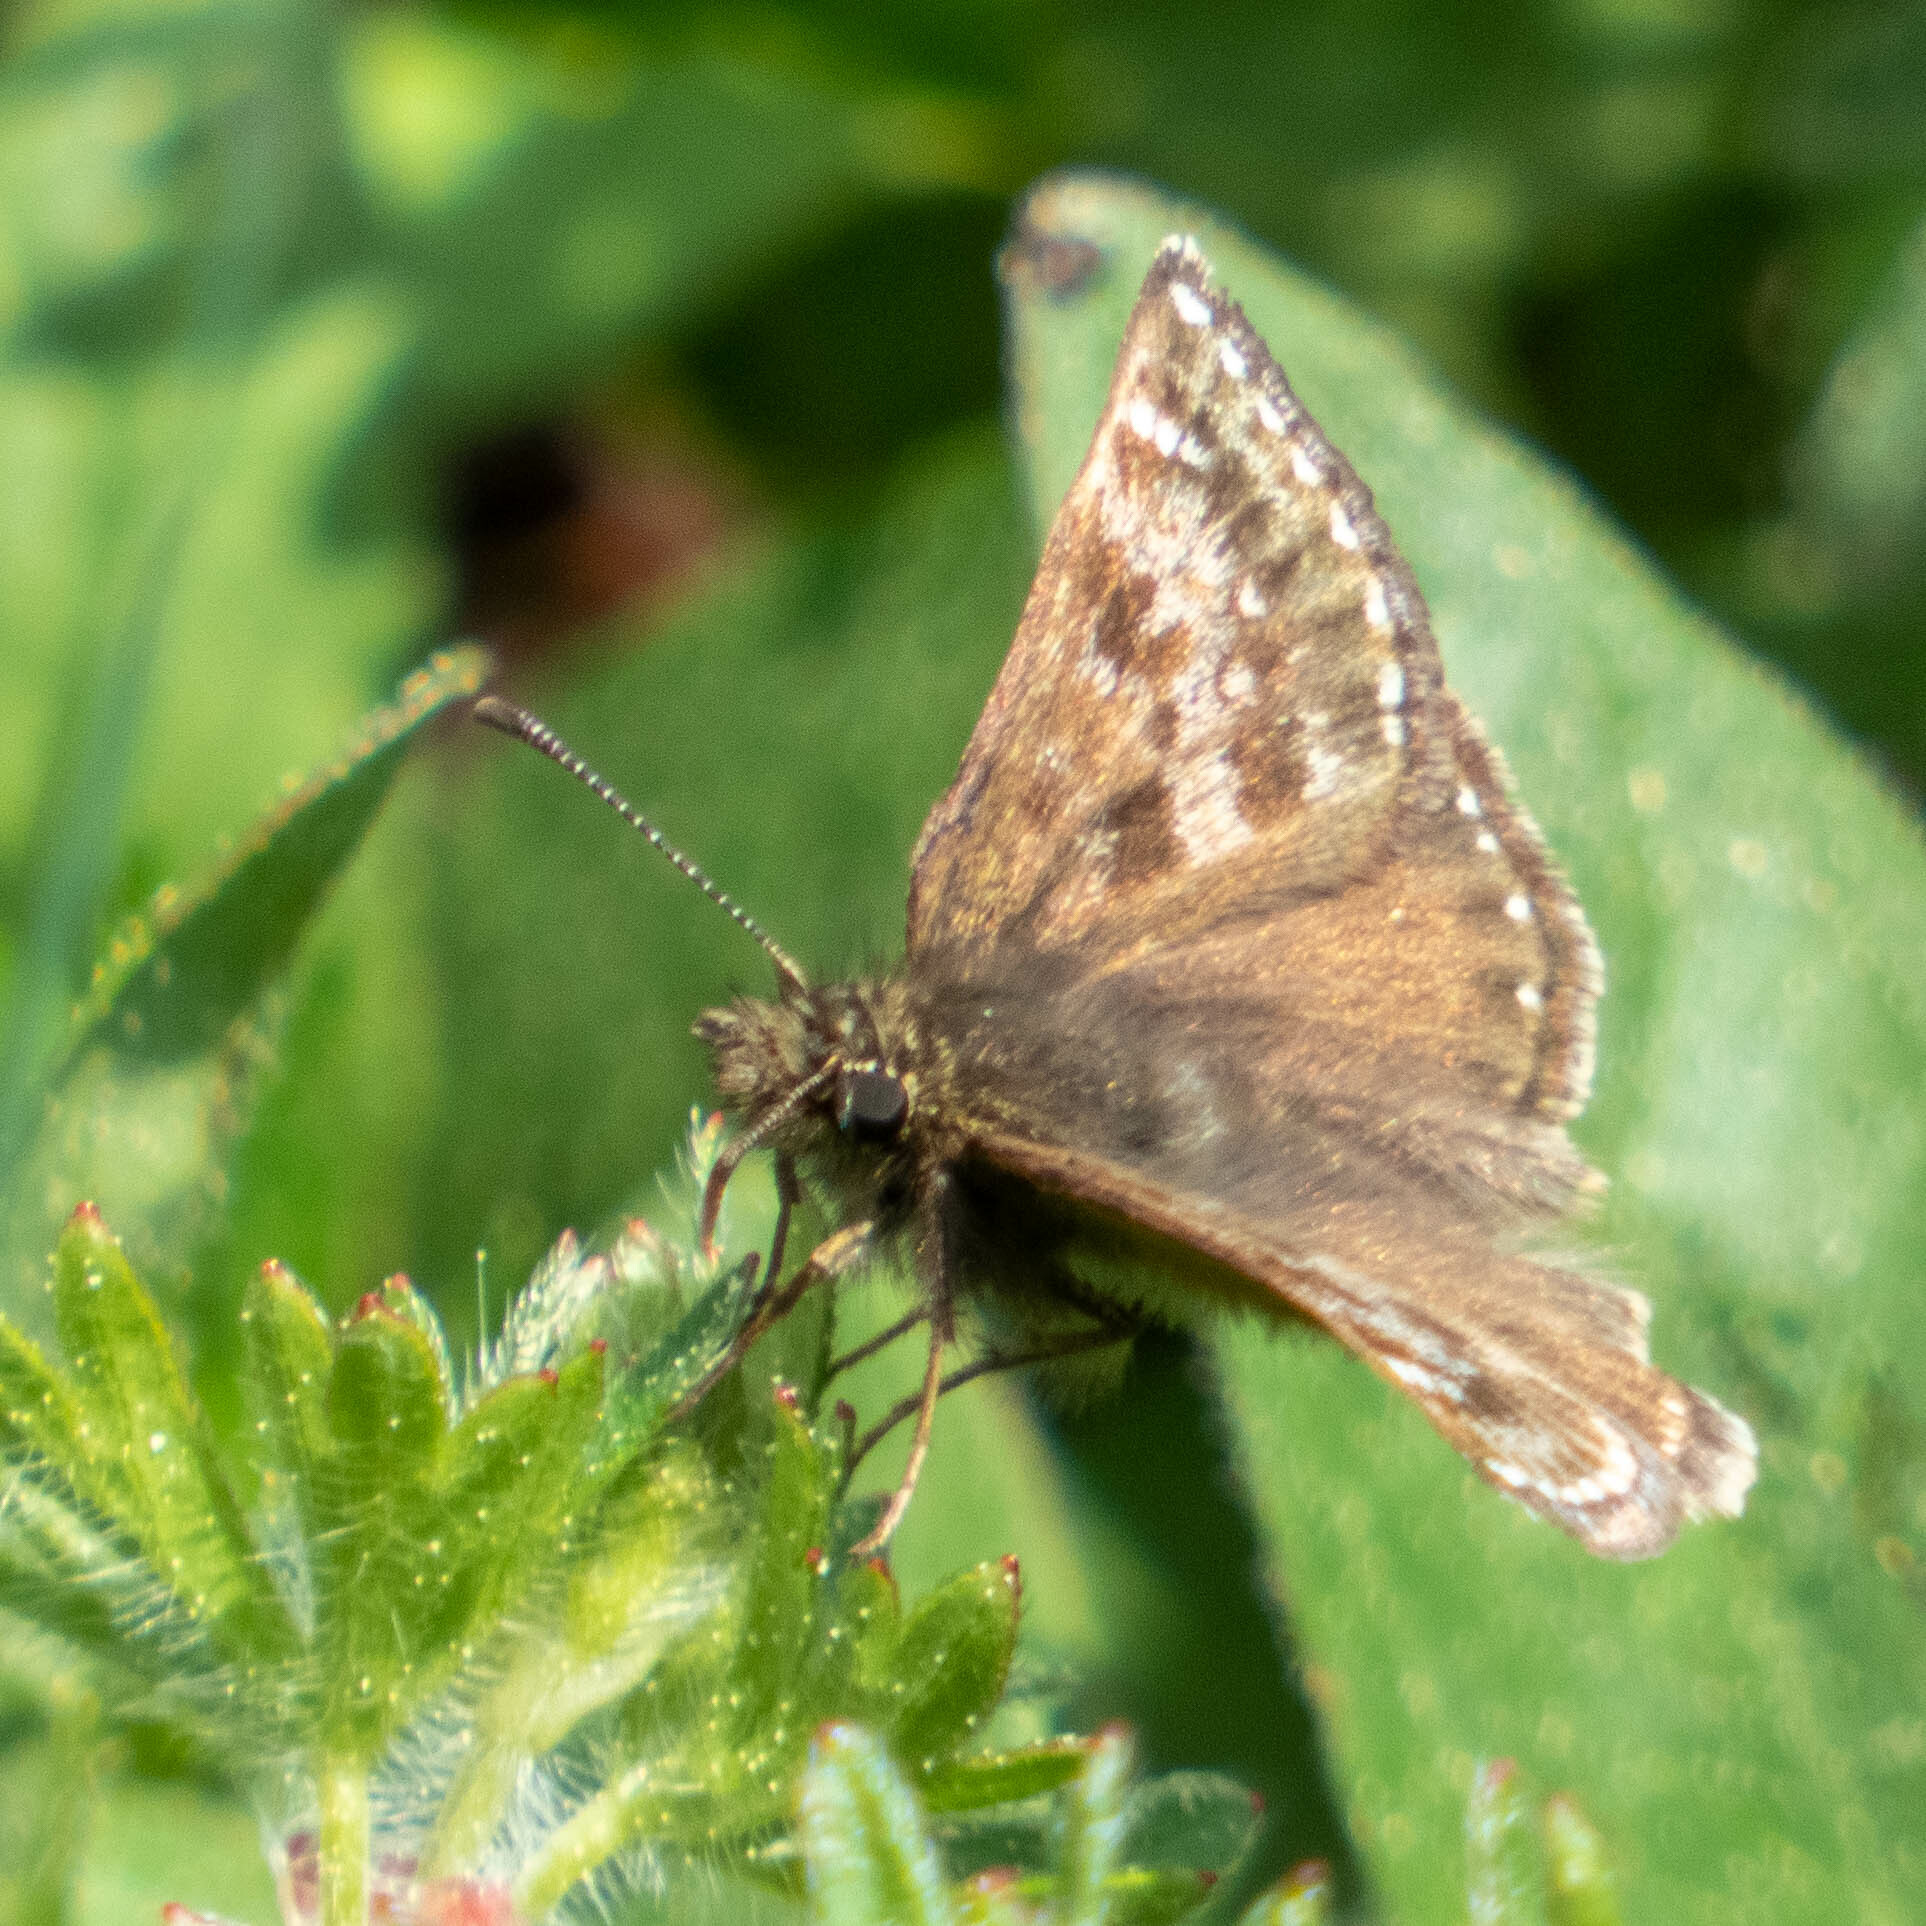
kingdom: Animalia
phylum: Arthropoda
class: Insecta
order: Lepidoptera
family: Hesperiidae
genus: Erynnis
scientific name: Erynnis tages
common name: Dingy skipper
